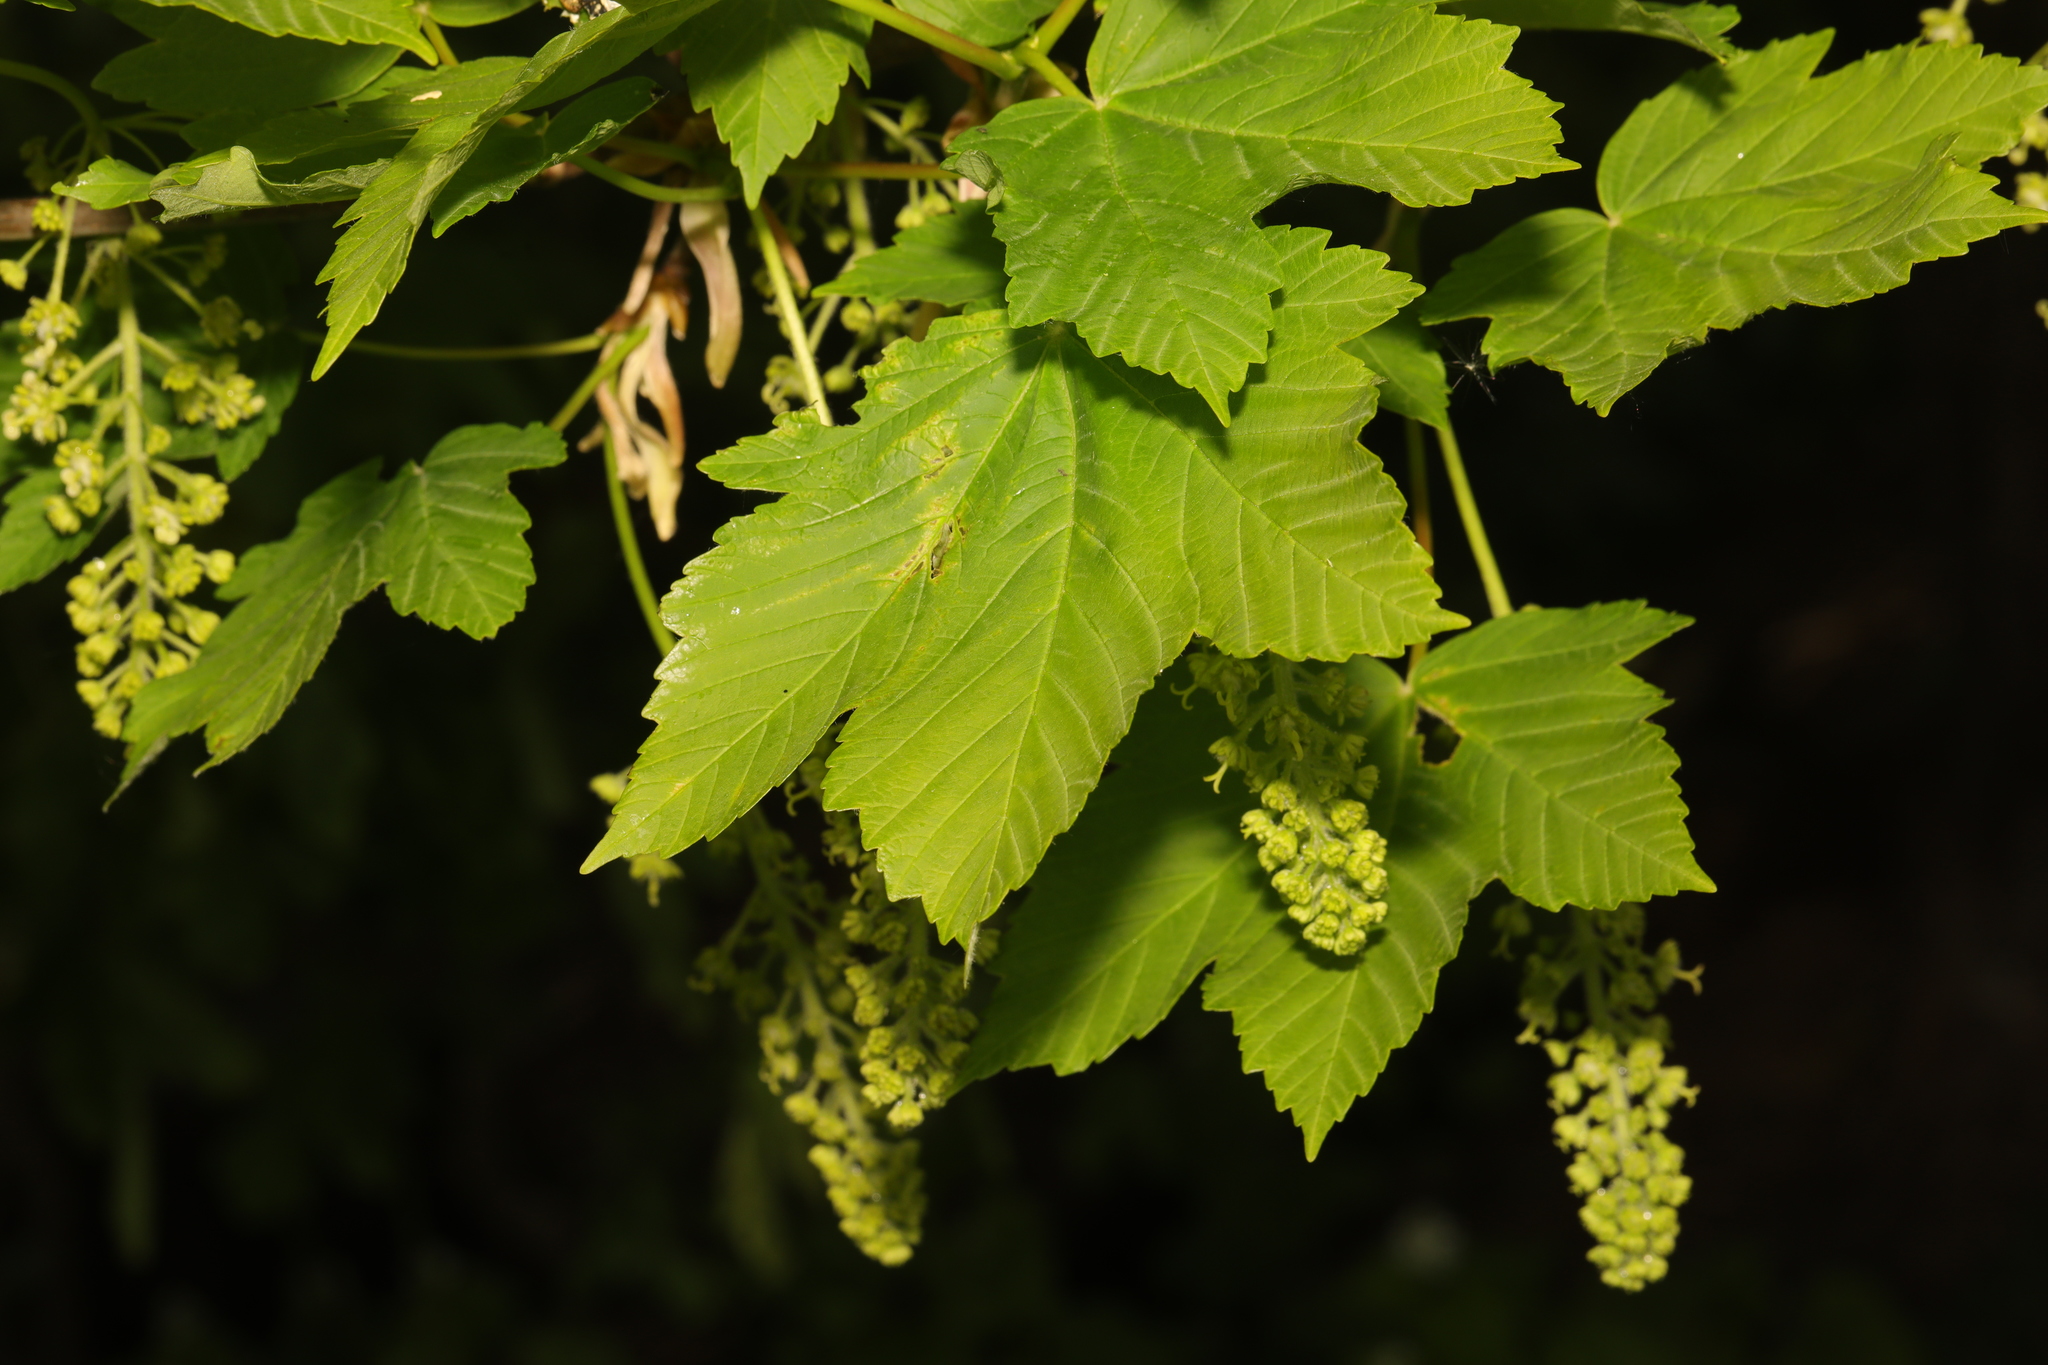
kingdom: Plantae
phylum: Tracheophyta
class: Magnoliopsida
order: Sapindales
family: Sapindaceae
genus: Acer
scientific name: Acer pseudoplatanus
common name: Sycamore
